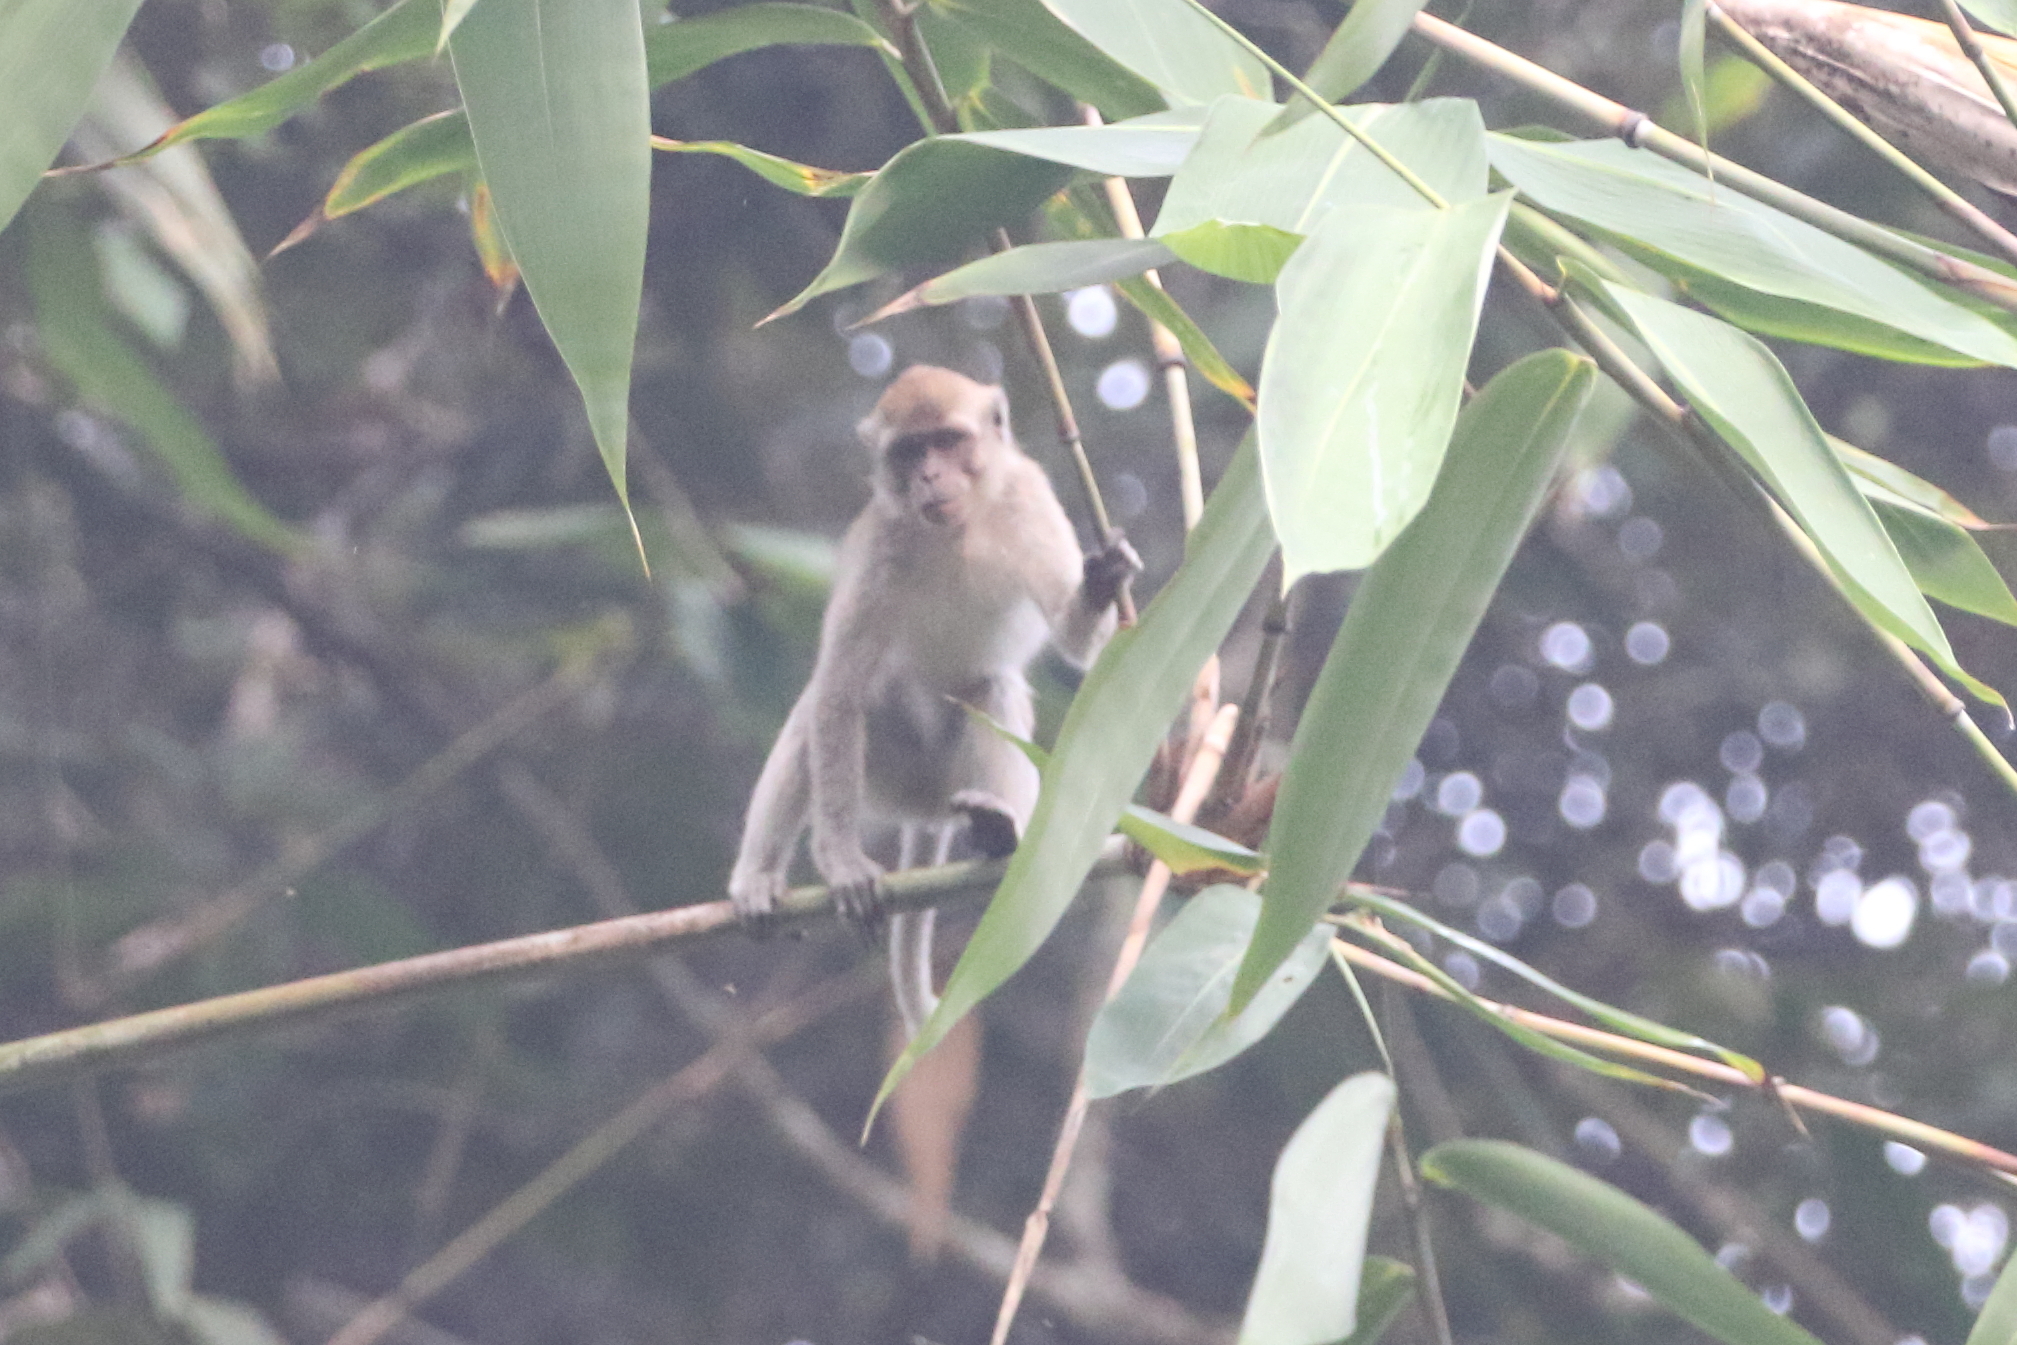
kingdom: Animalia
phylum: Chordata
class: Mammalia
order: Primates
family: Cercopithecidae
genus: Macaca
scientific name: Macaca fascicularis
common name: Crab-eating macaque
